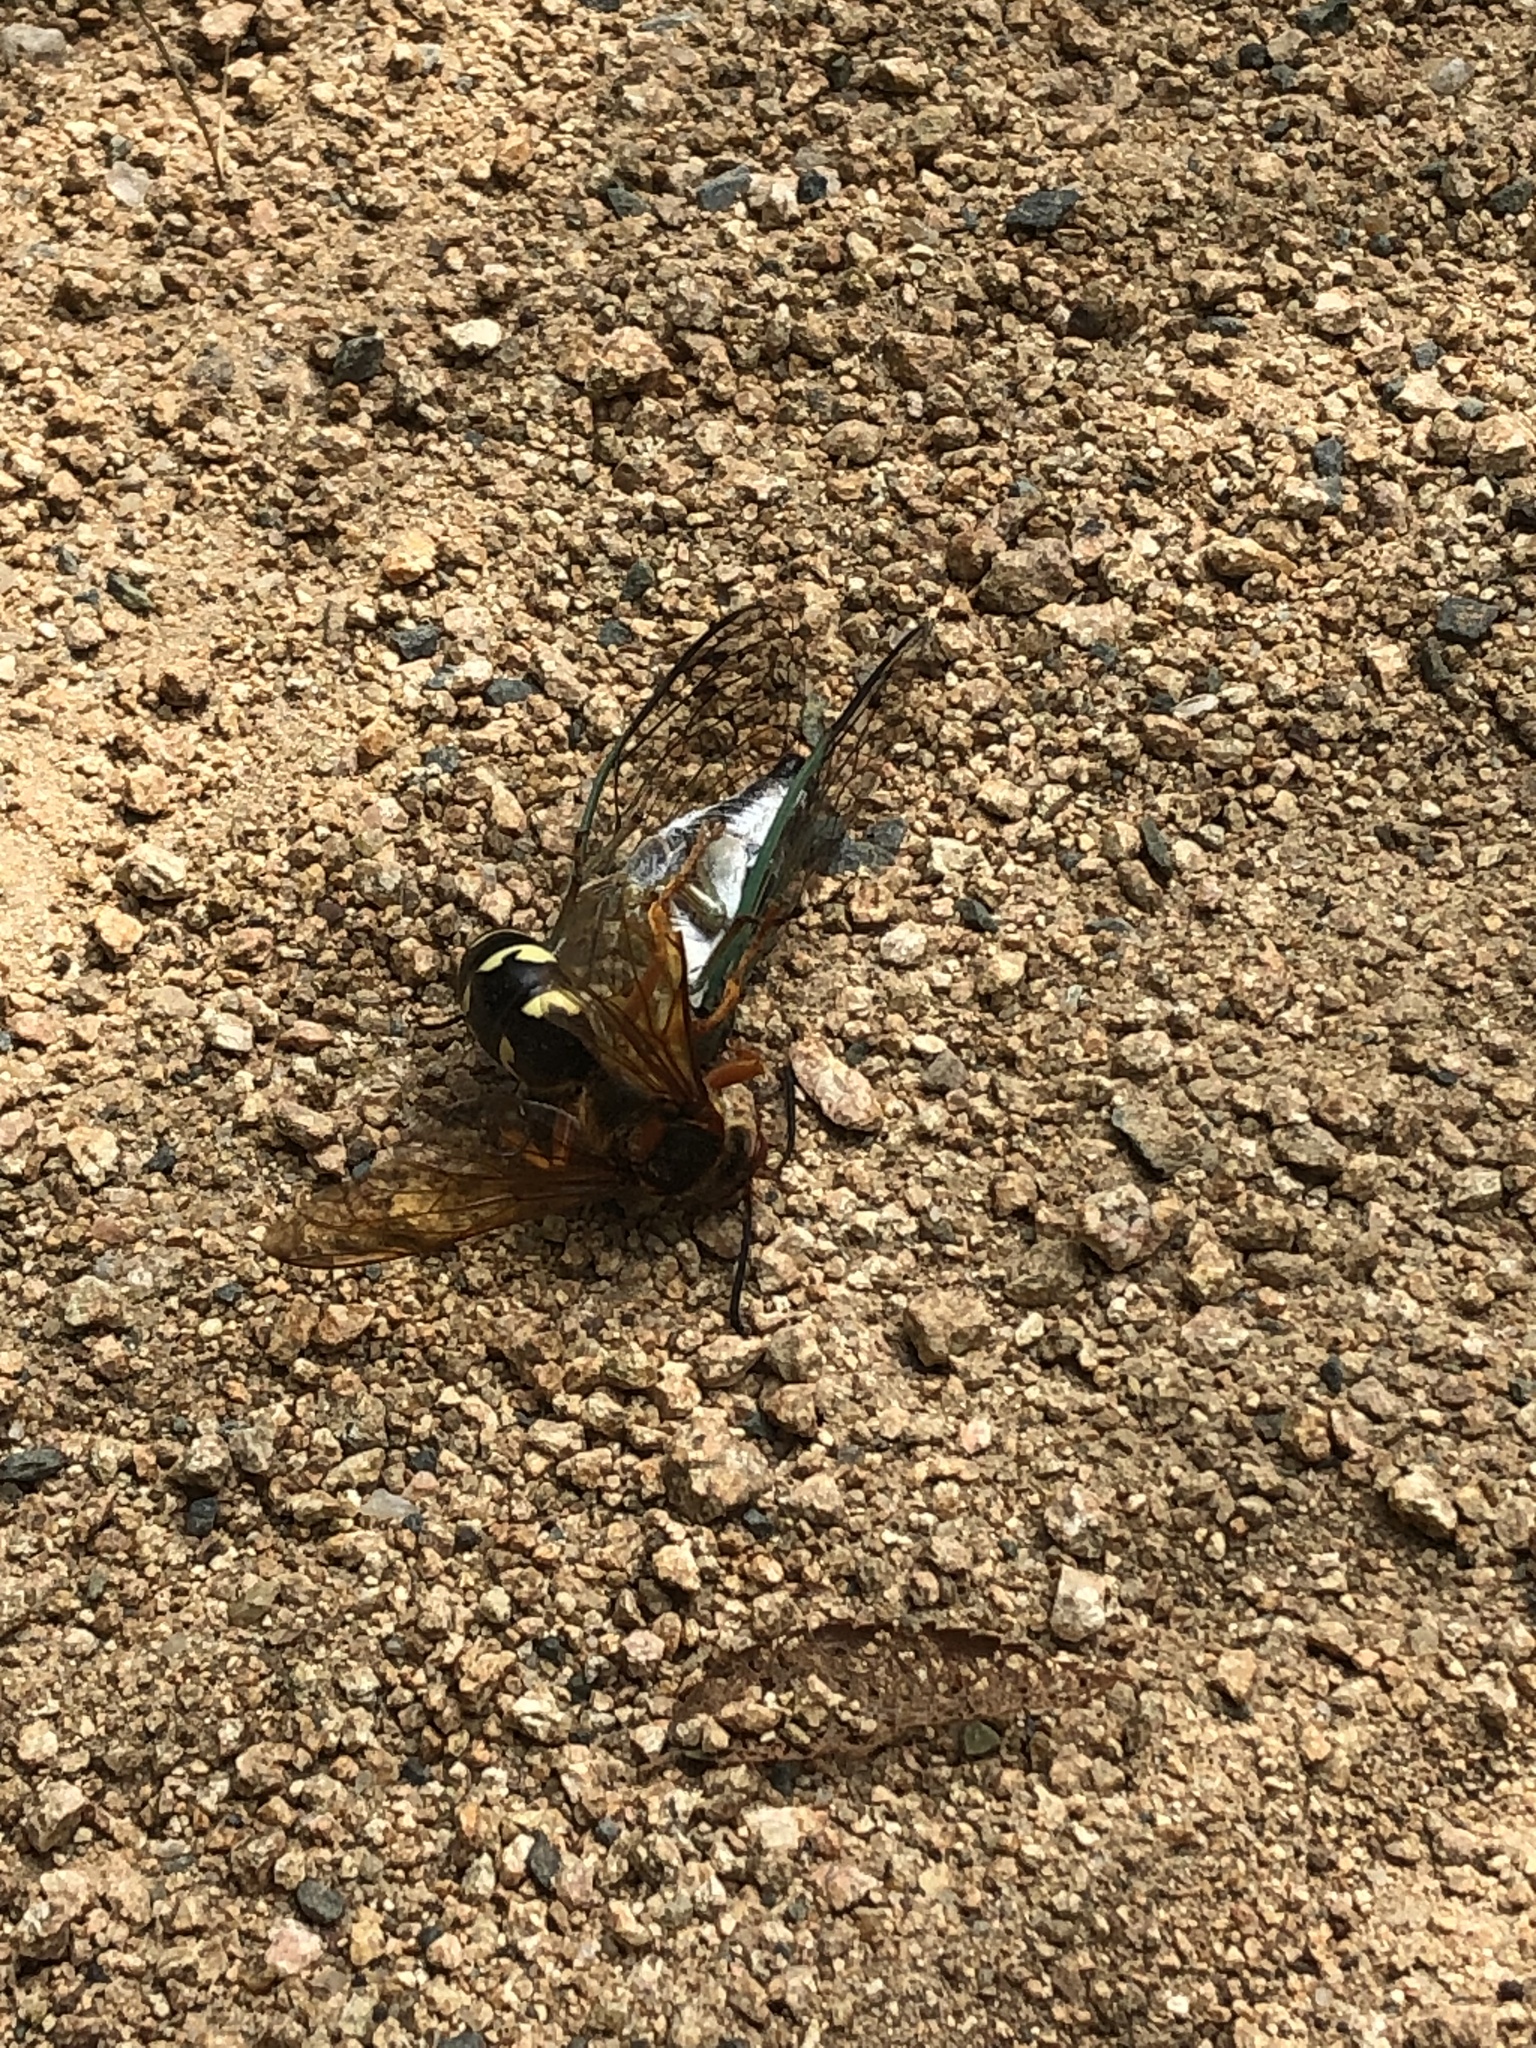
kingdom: Animalia
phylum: Arthropoda
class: Insecta
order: Hymenoptera
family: Crabronidae
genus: Sphecius
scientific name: Sphecius speciosus
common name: Cicada killer
